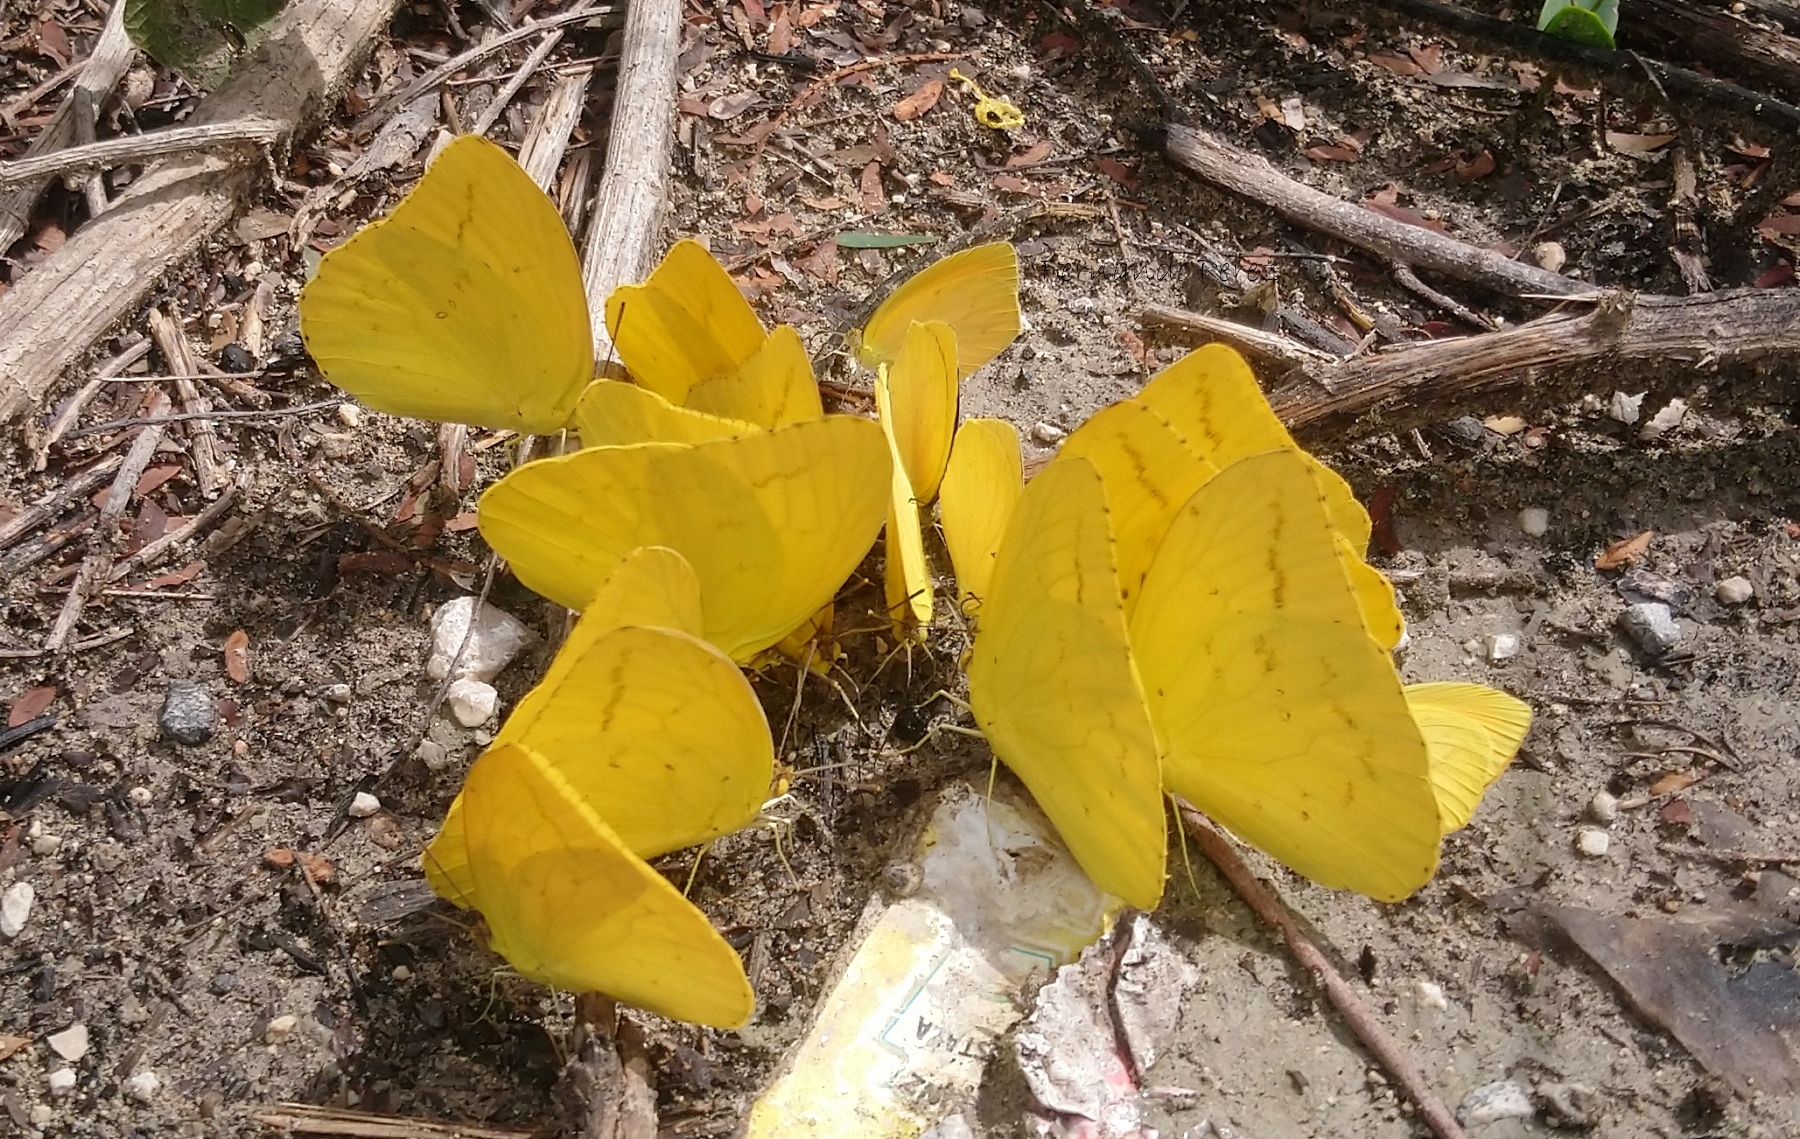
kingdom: Animalia
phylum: Arthropoda
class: Insecta
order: Lepidoptera
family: Pieridae
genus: Phoebis
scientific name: Phoebis agarithe
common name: Large orange sulphur
